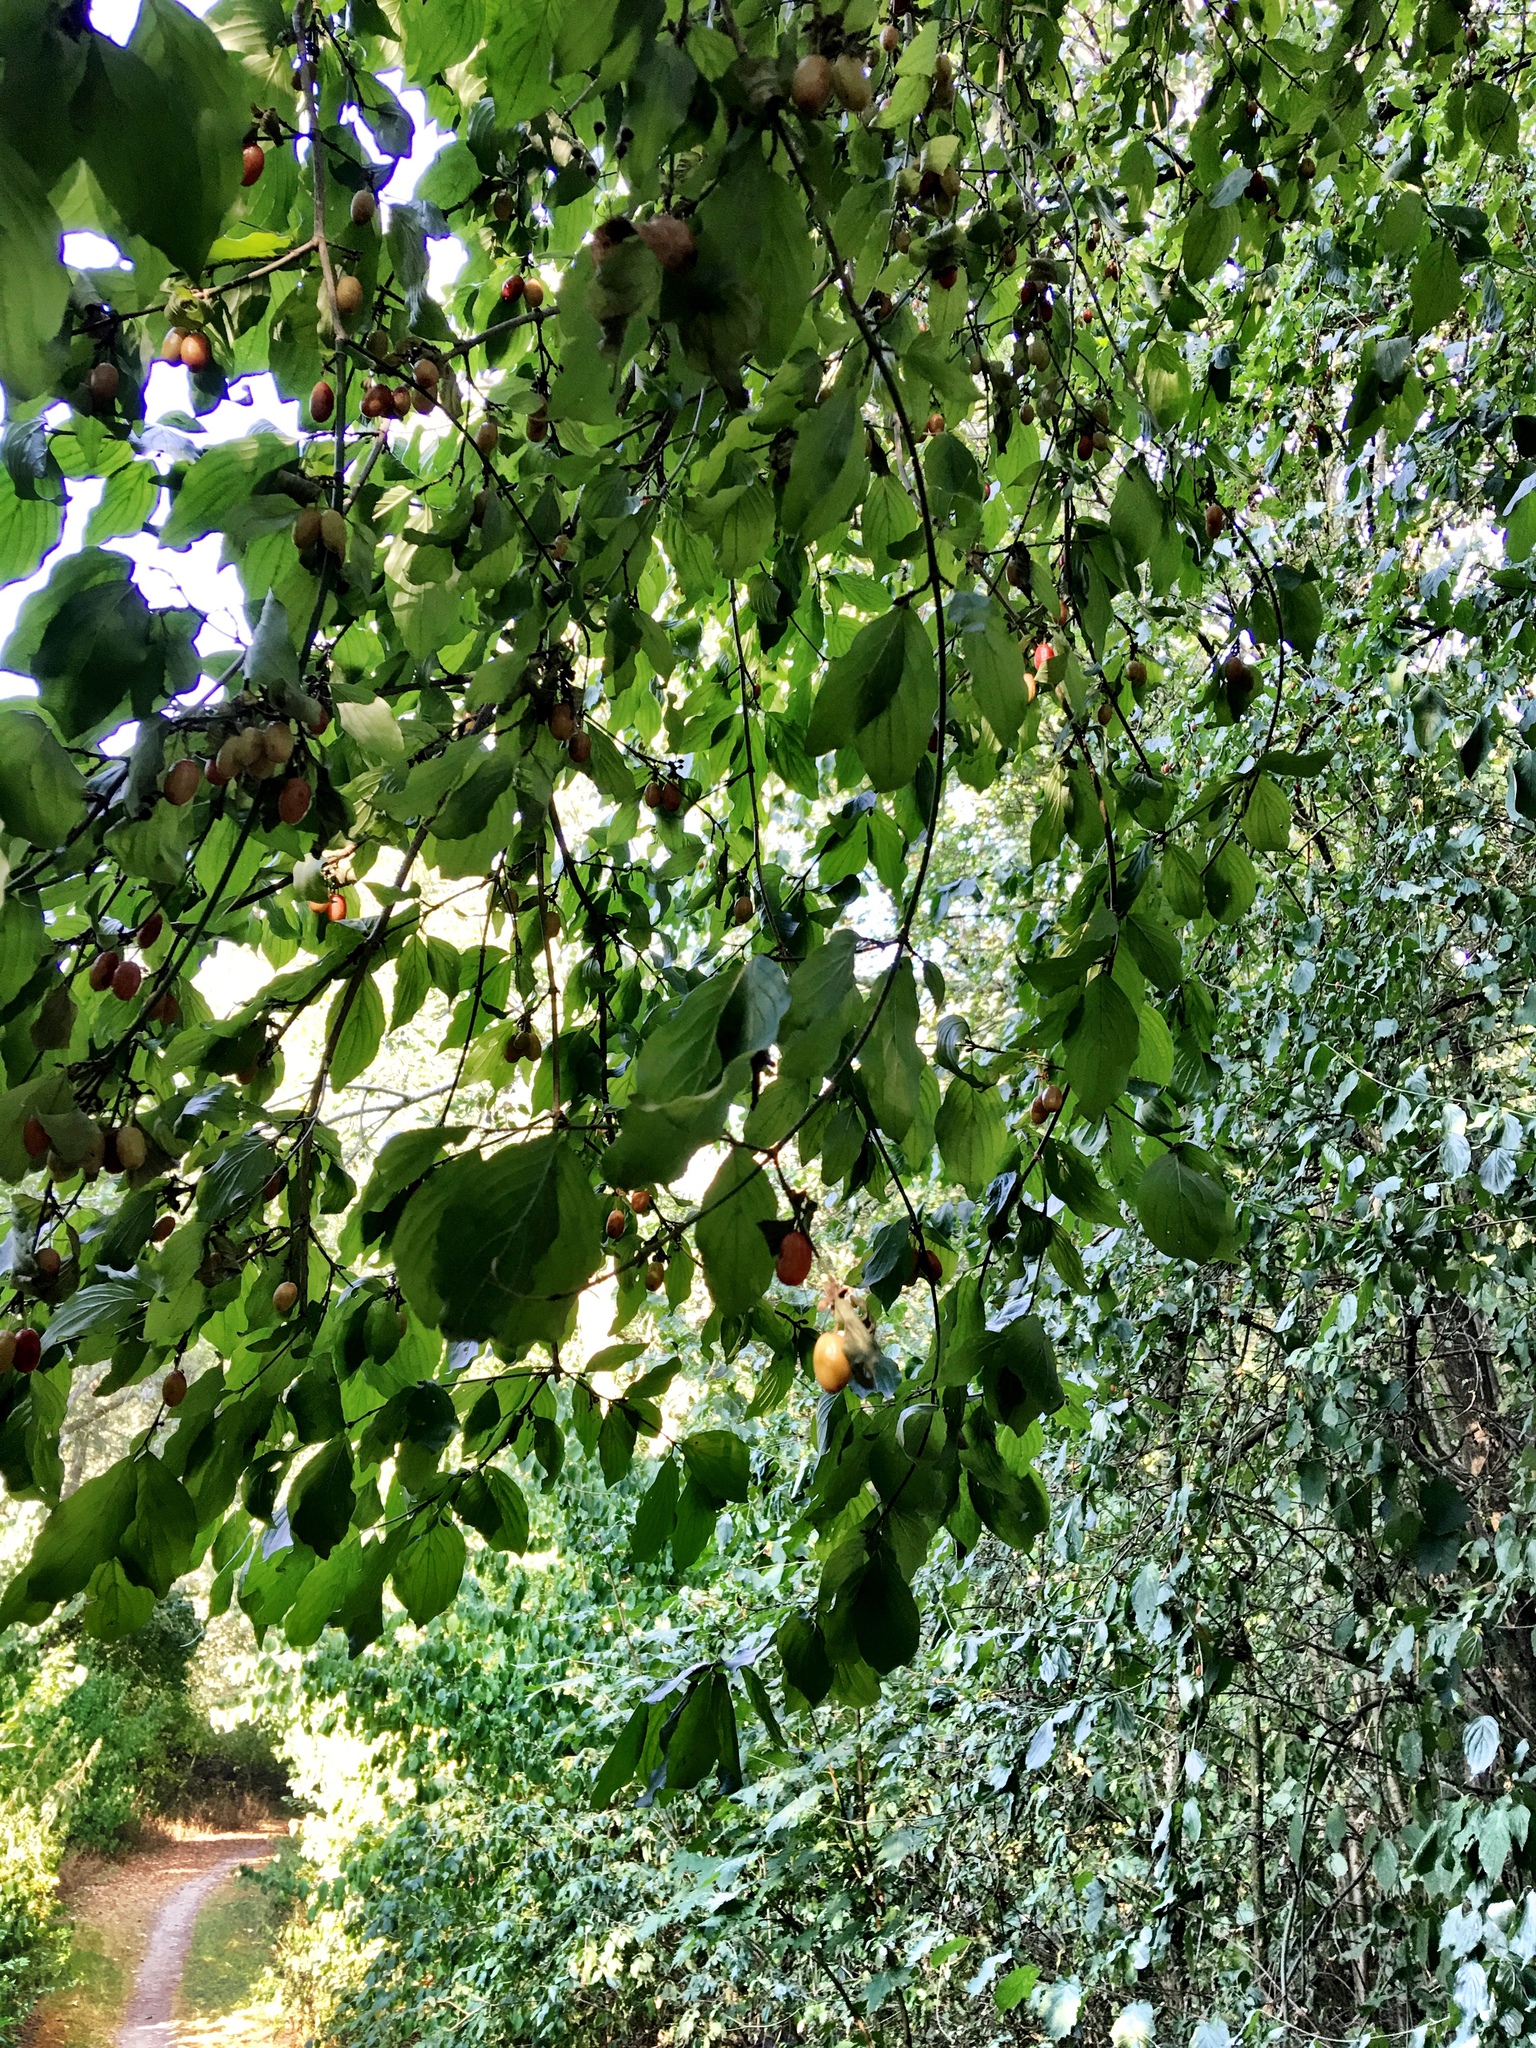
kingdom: Plantae
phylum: Tracheophyta
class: Magnoliopsida
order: Cornales
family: Cornaceae
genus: Cornus
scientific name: Cornus mas
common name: Cornelian-cherry
